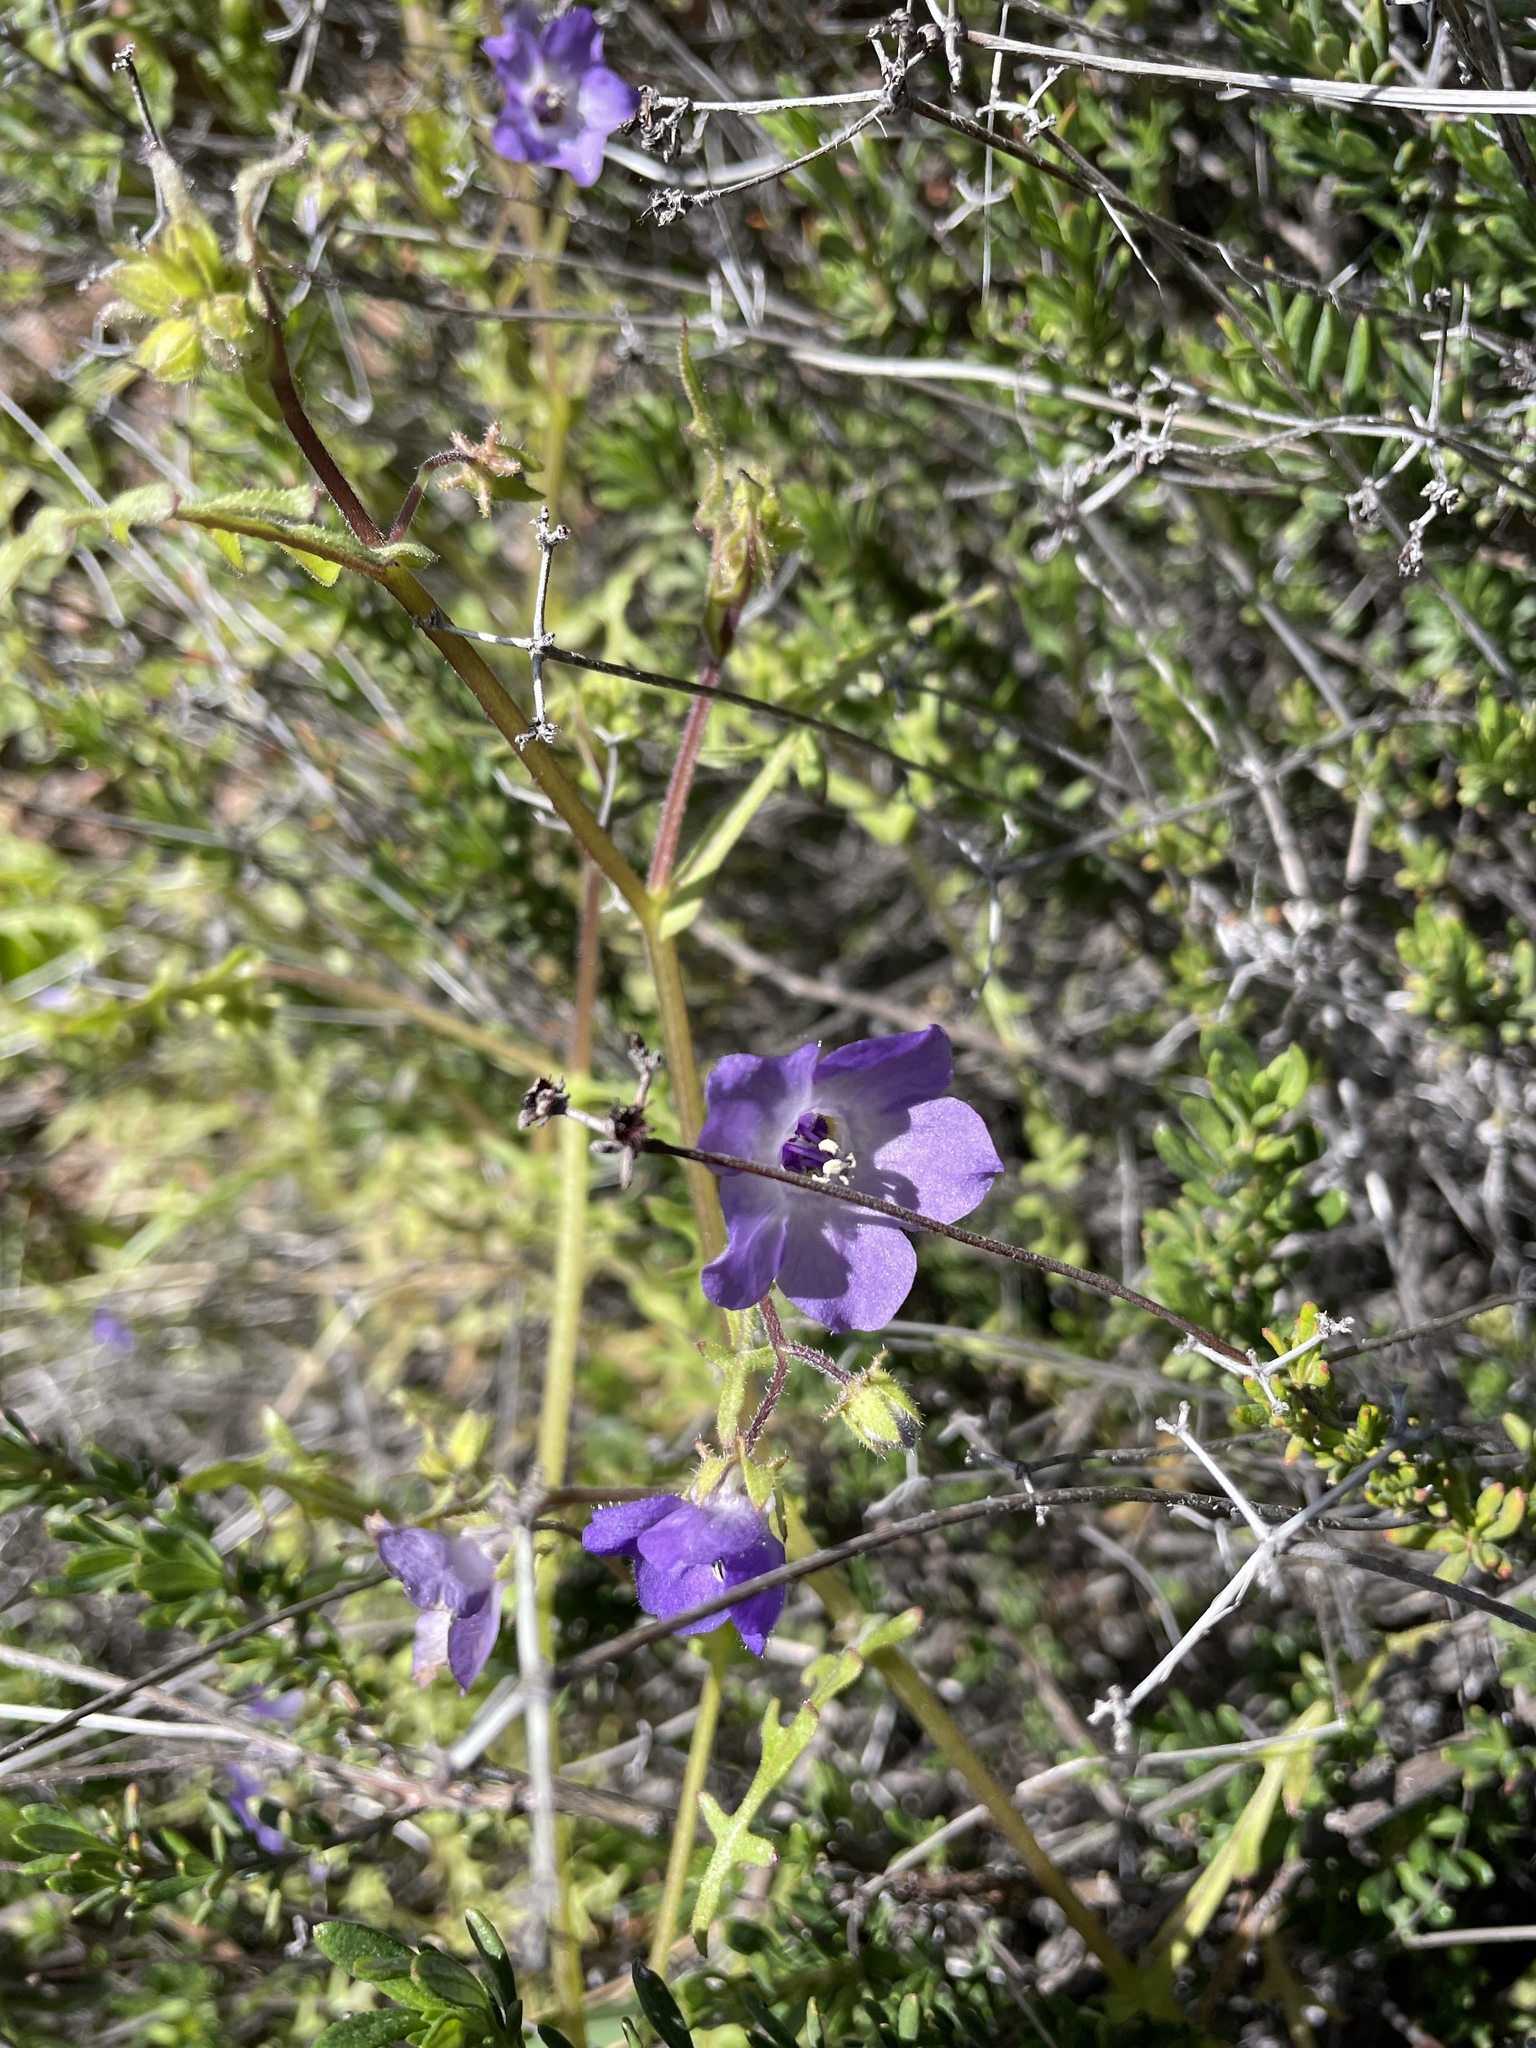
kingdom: Plantae
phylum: Tracheophyta
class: Magnoliopsida
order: Boraginales
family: Hydrophyllaceae
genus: Pholistoma
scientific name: Pholistoma auritum
